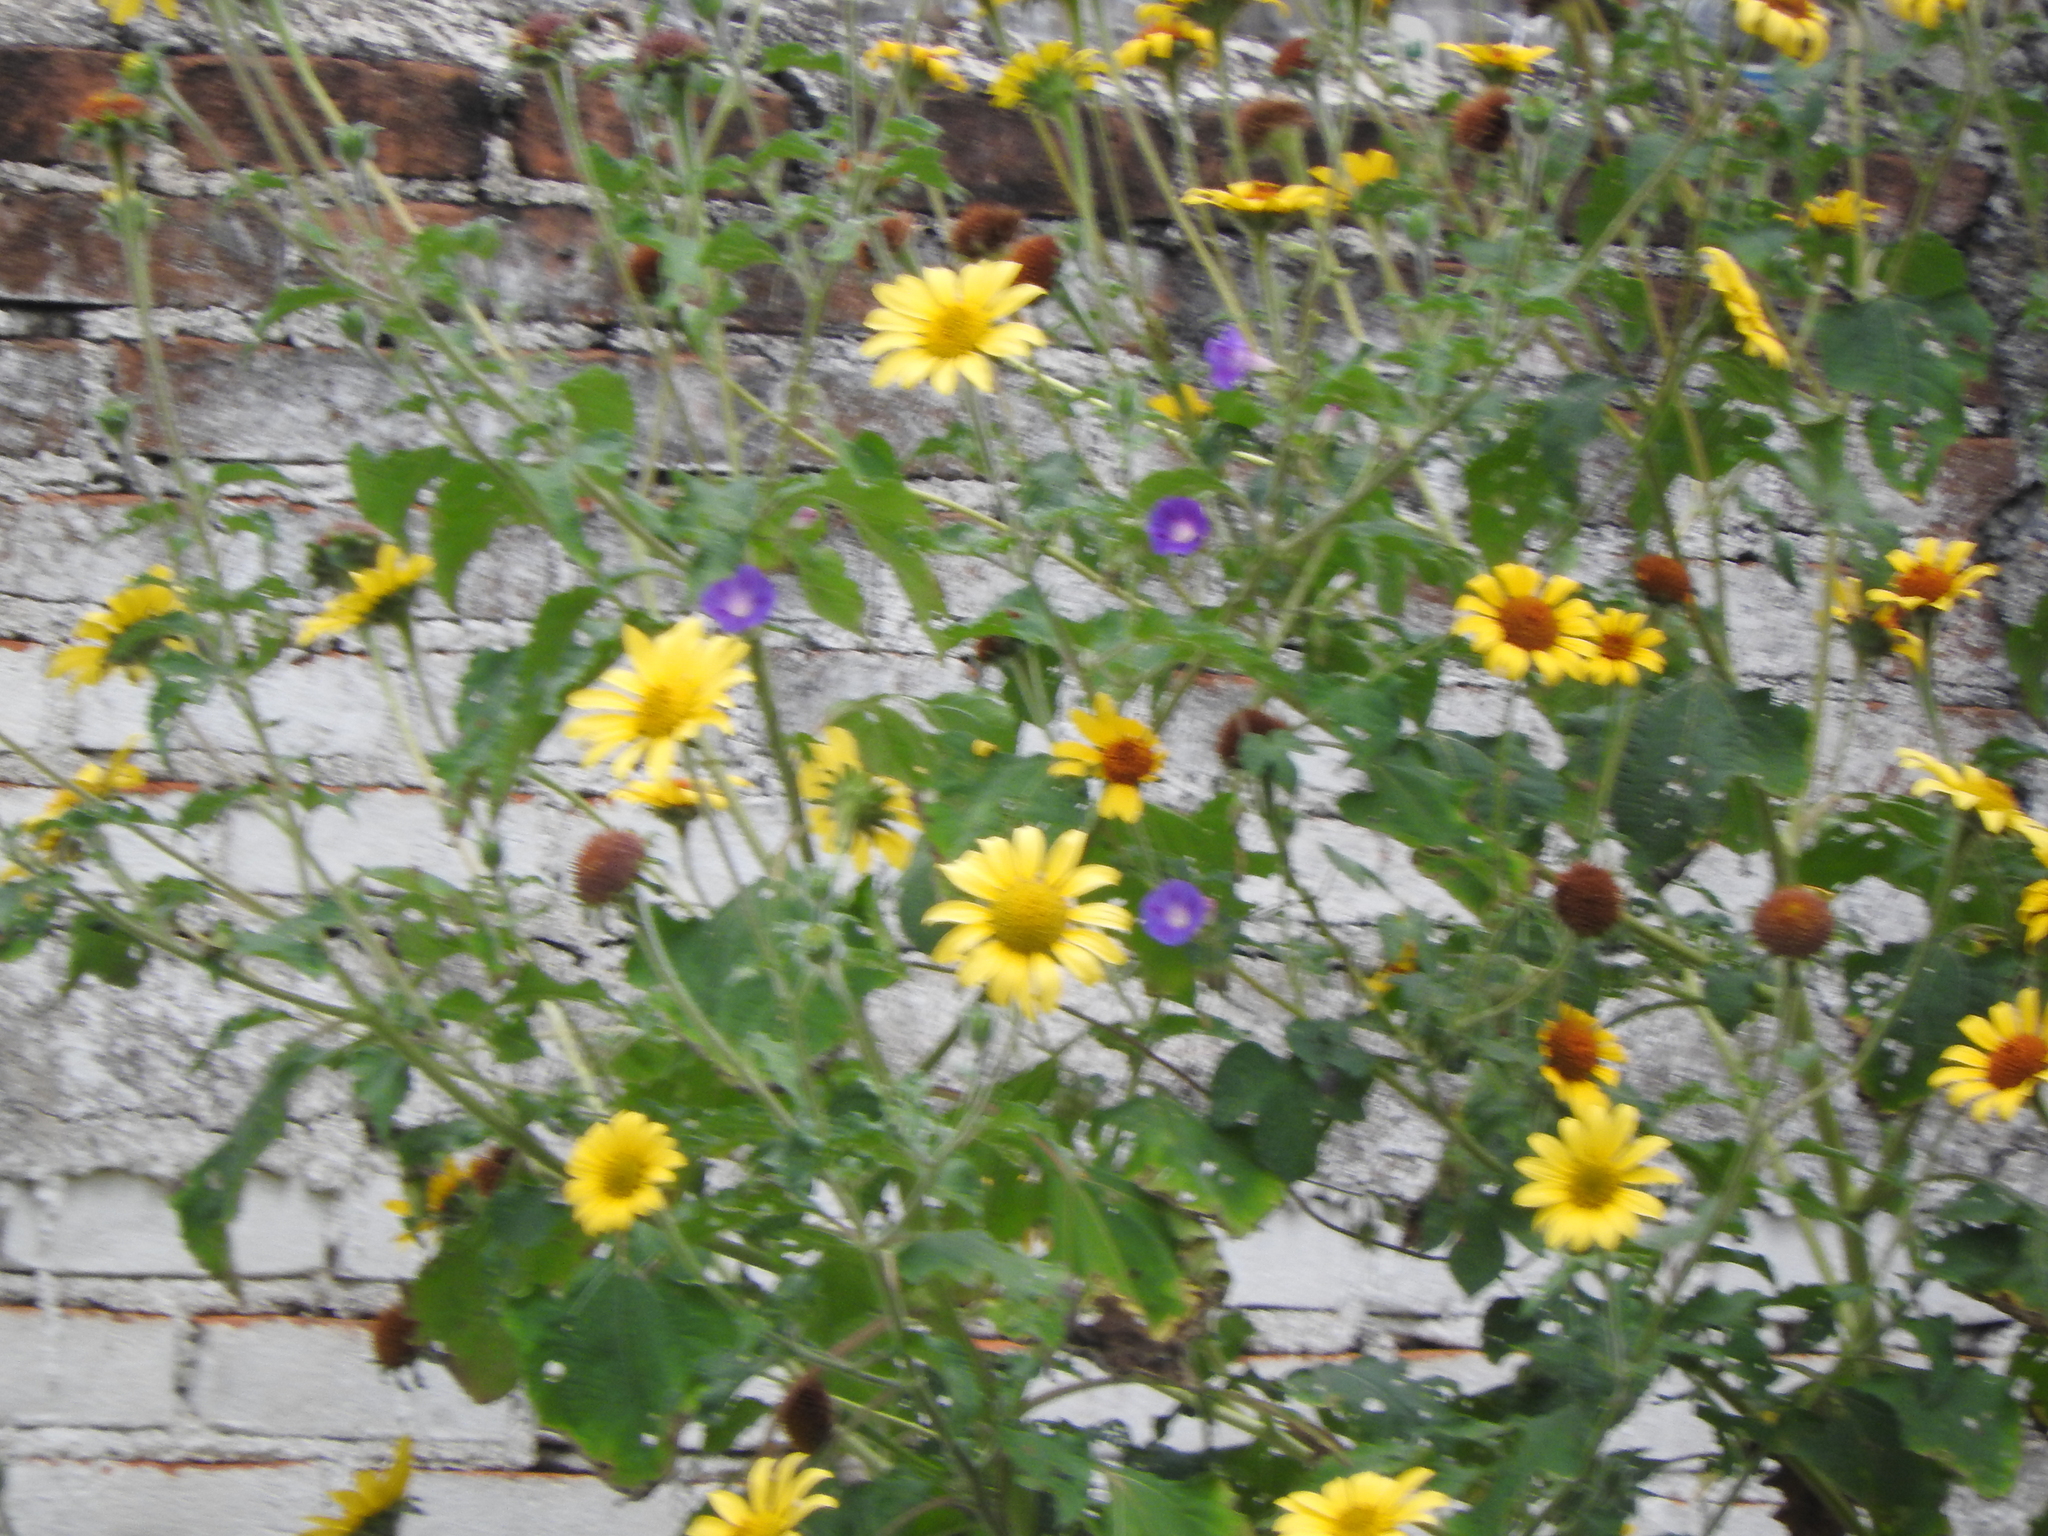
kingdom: Plantae
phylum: Tracheophyta
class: Magnoliopsida
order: Asterales
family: Asteraceae
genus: Tithonia
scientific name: Tithonia tubaeformis
